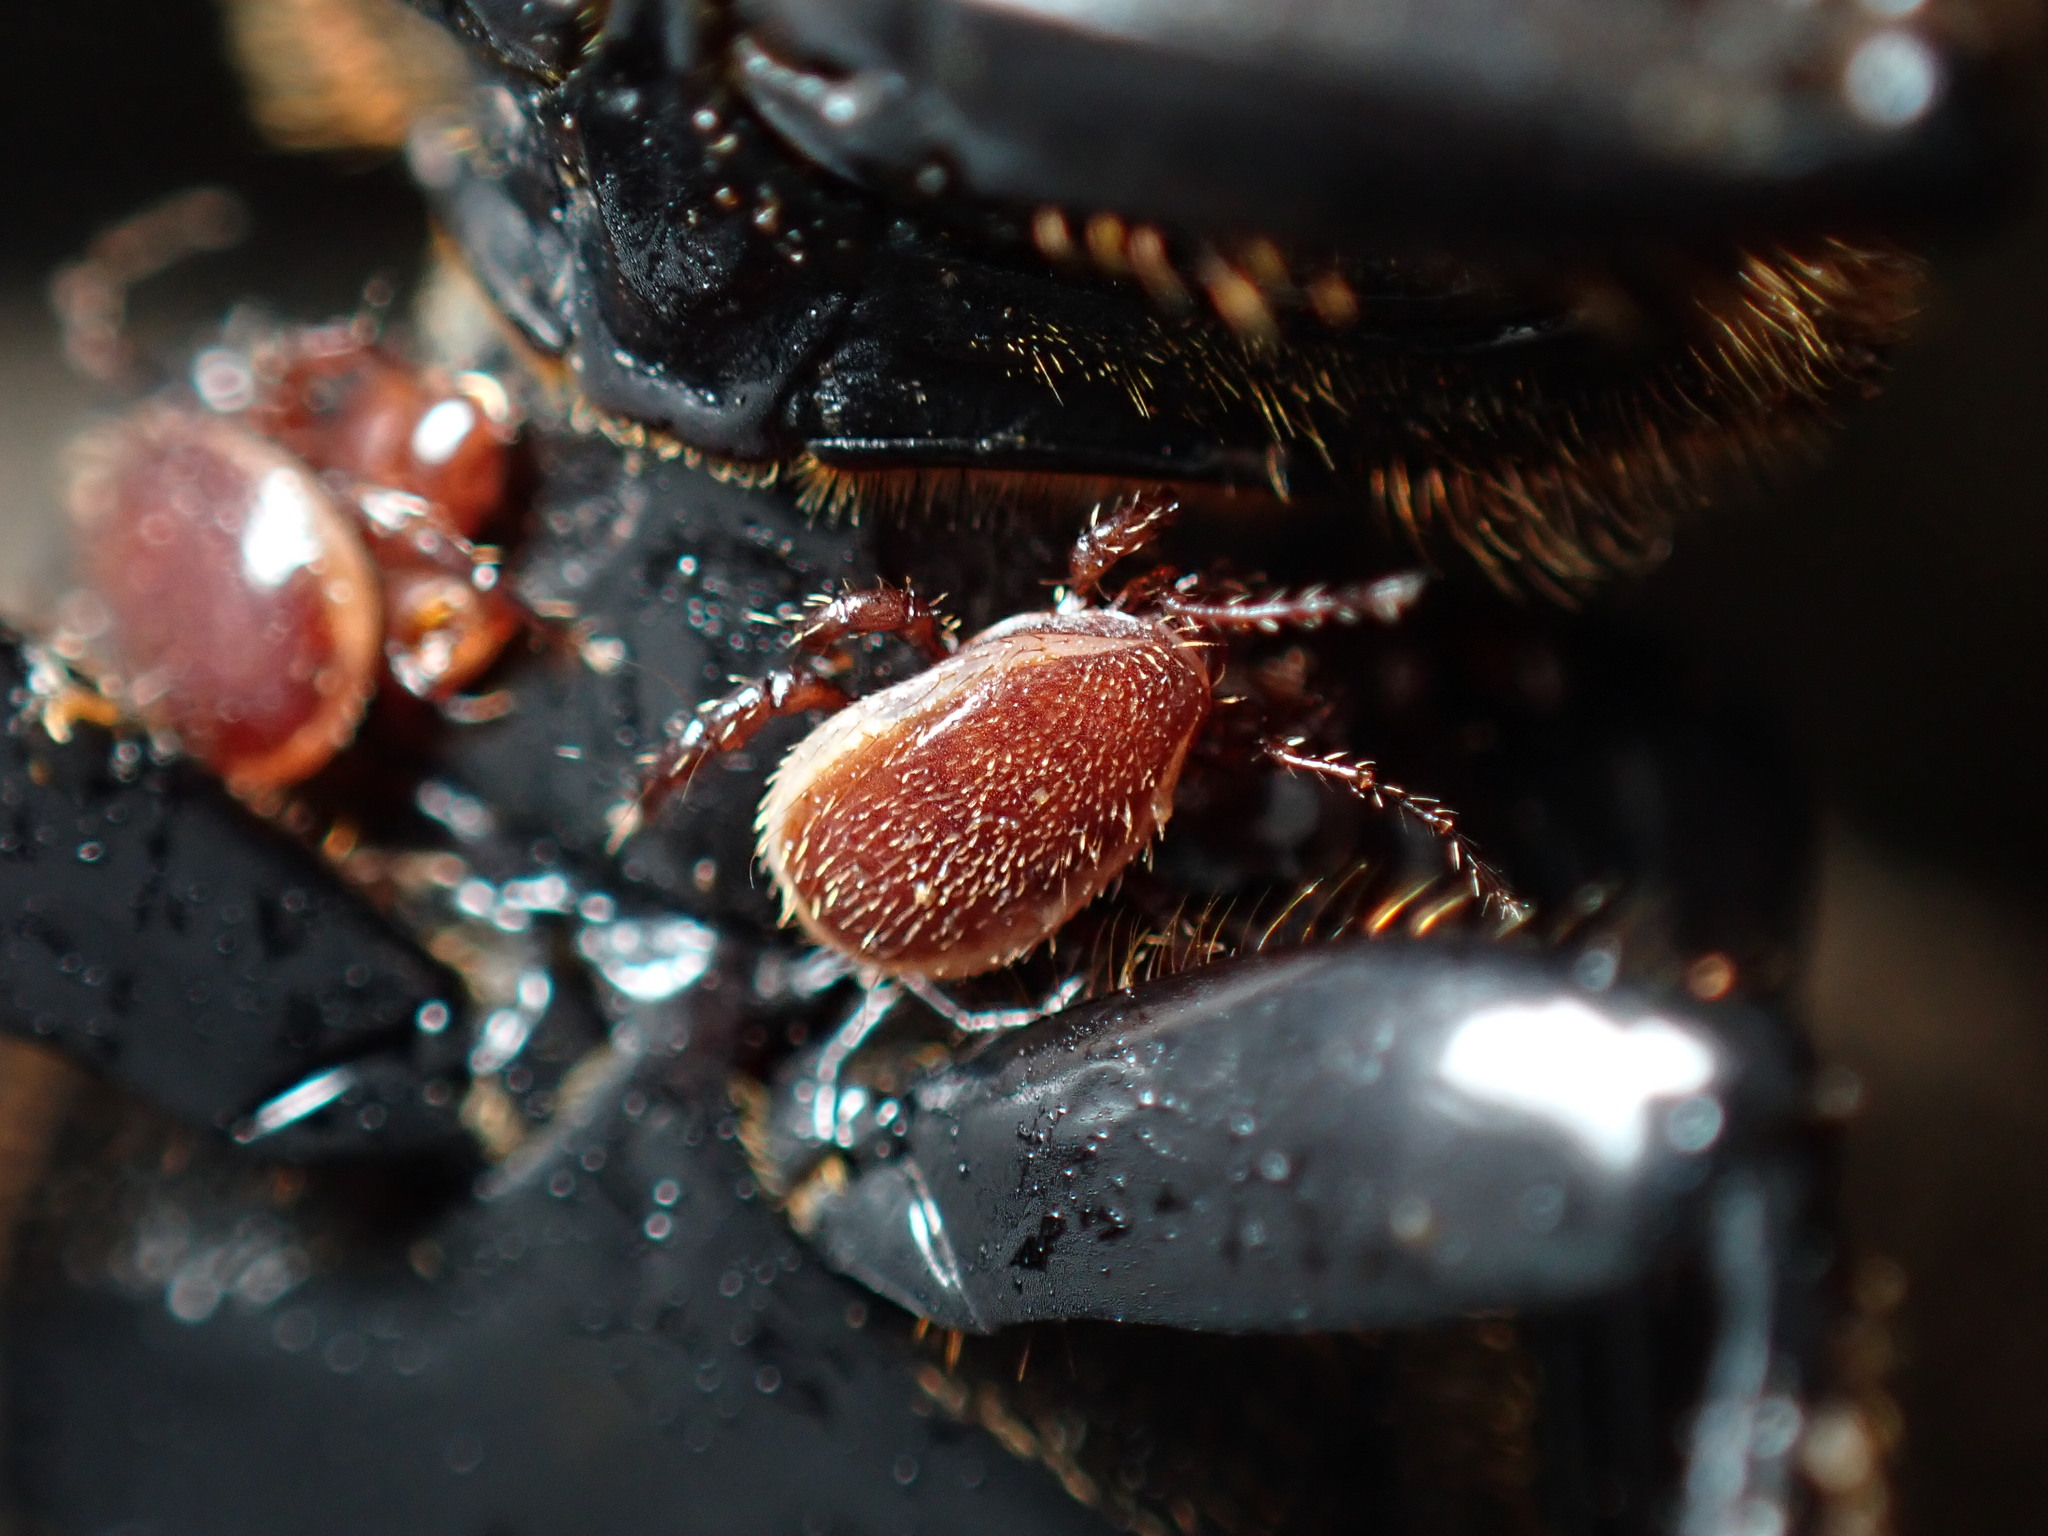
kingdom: Animalia
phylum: Arthropoda
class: Arachnida
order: Mesostigmata
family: Megisthanidae
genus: Megisthanus
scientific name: Megisthanus thorelli
